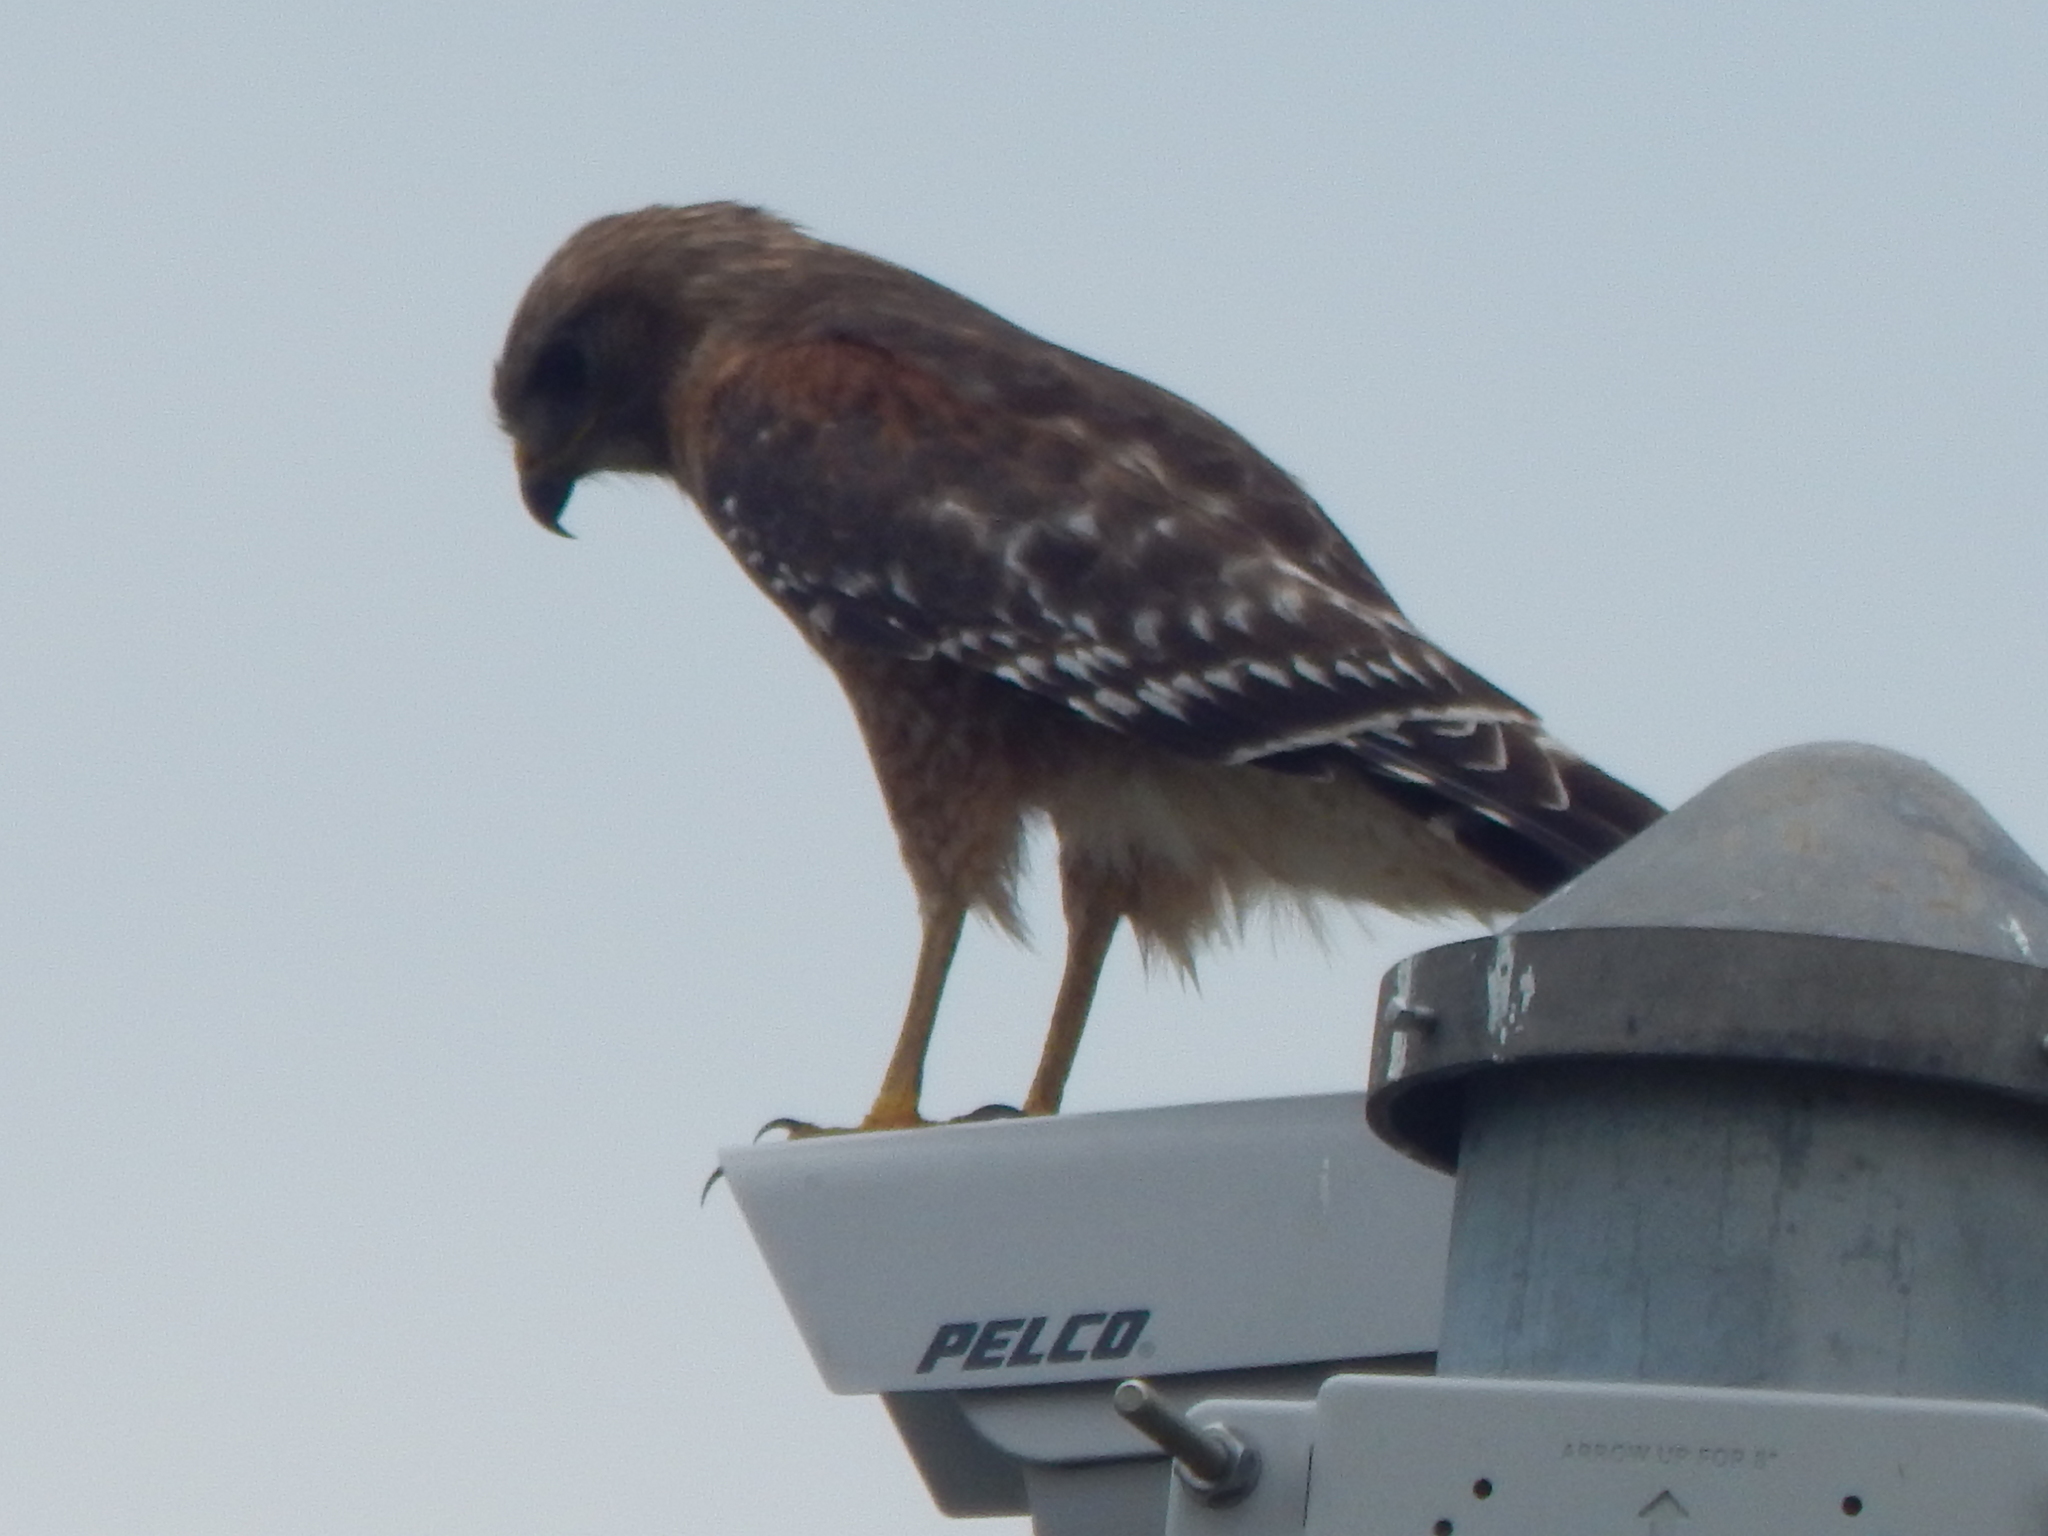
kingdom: Animalia
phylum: Chordata
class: Aves
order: Accipitriformes
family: Accipitridae
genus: Buteo
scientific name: Buteo lineatus
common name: Red-shouldered hawk
